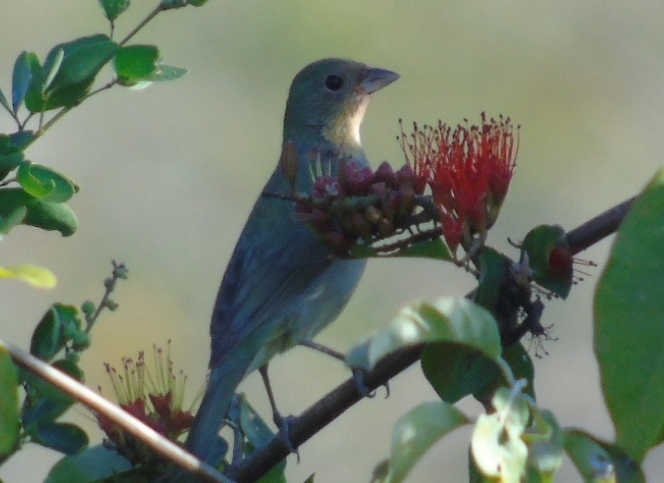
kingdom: Animalia
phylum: Chordata
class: Aves
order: Passeriformes
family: Cardinalidae
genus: Passerina
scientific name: Passerina ciris
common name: Painted bunting
